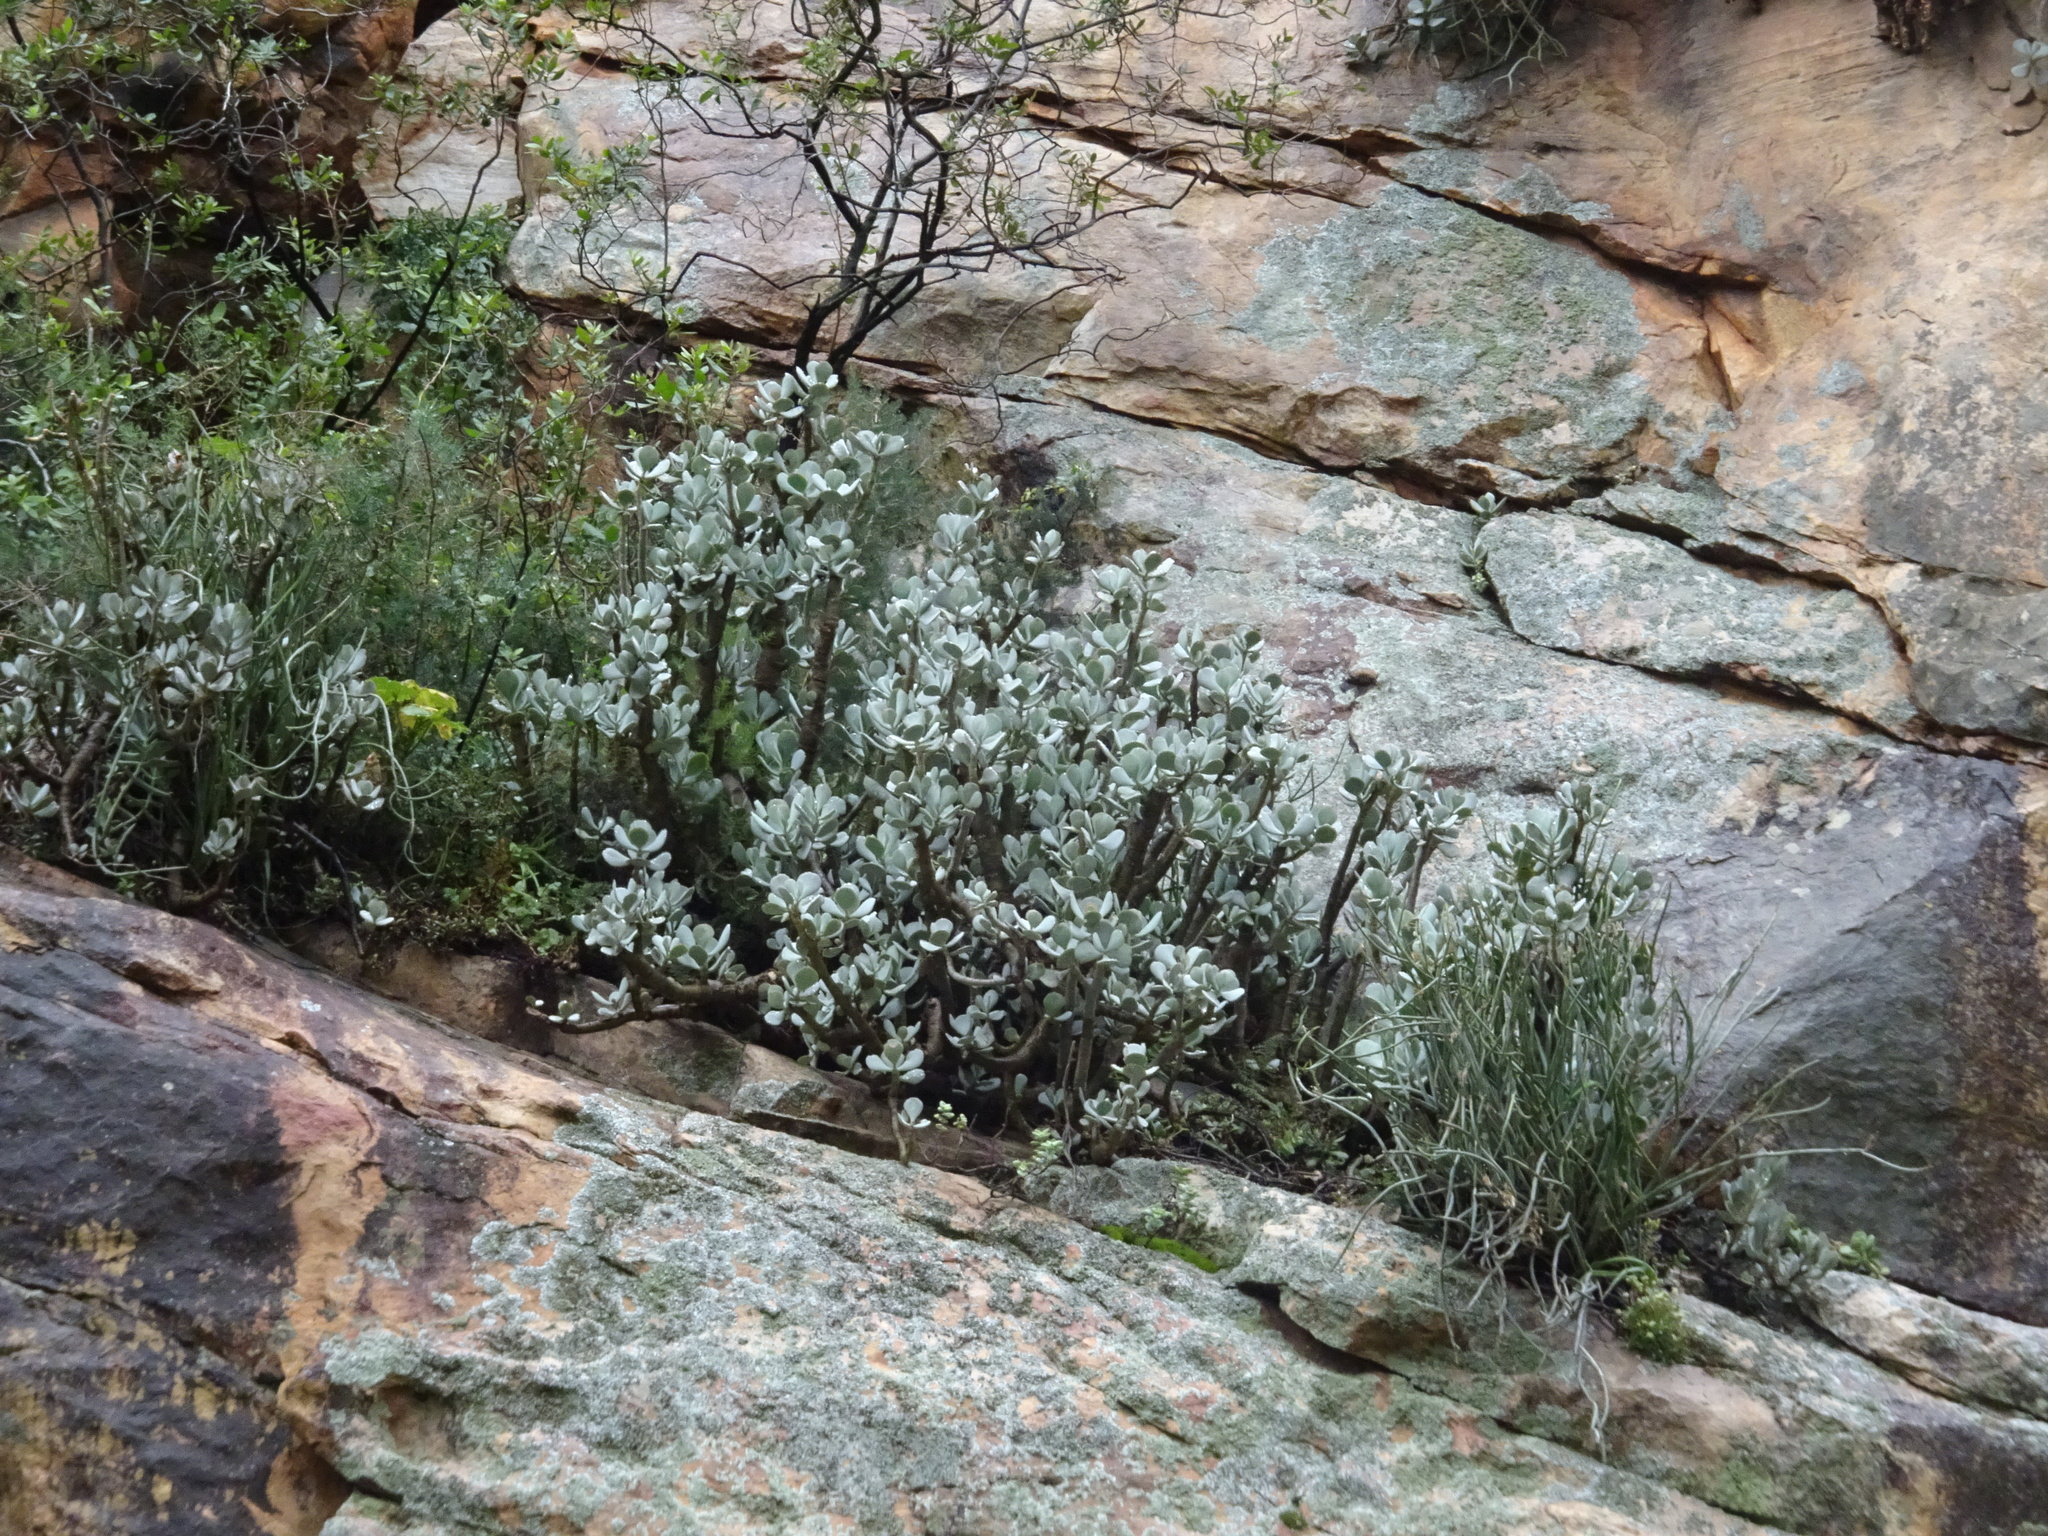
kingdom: Plantae
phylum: Tracheophyta
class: Magnoliopsida
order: Saxifragales
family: Crassulaceae
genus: Crassula
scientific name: Crassula arborescens
